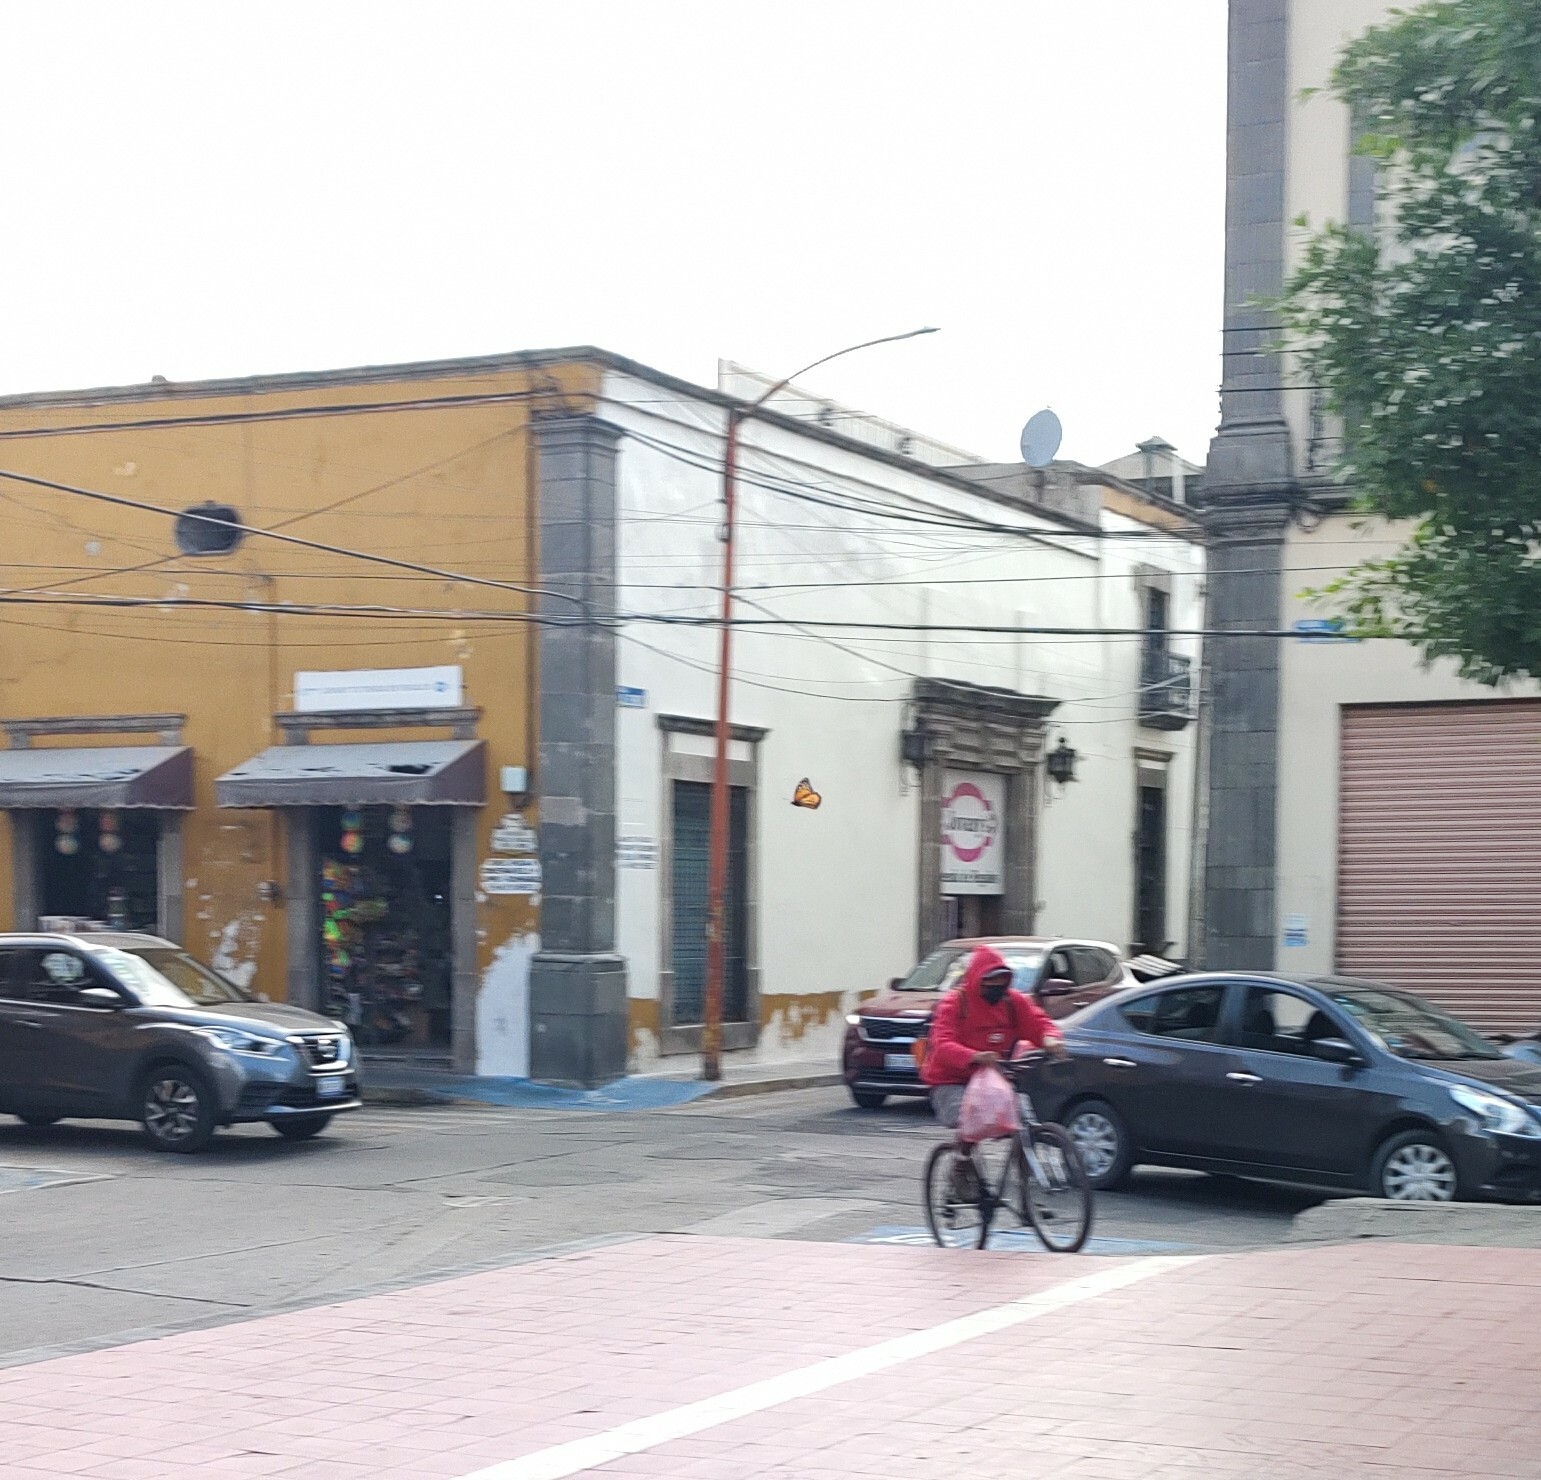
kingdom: Animalia
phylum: Arthropoda
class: Insecta
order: Lepidoptera
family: Nymphalidae
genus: Danaus
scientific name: Danaus plexippus
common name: Monarch
